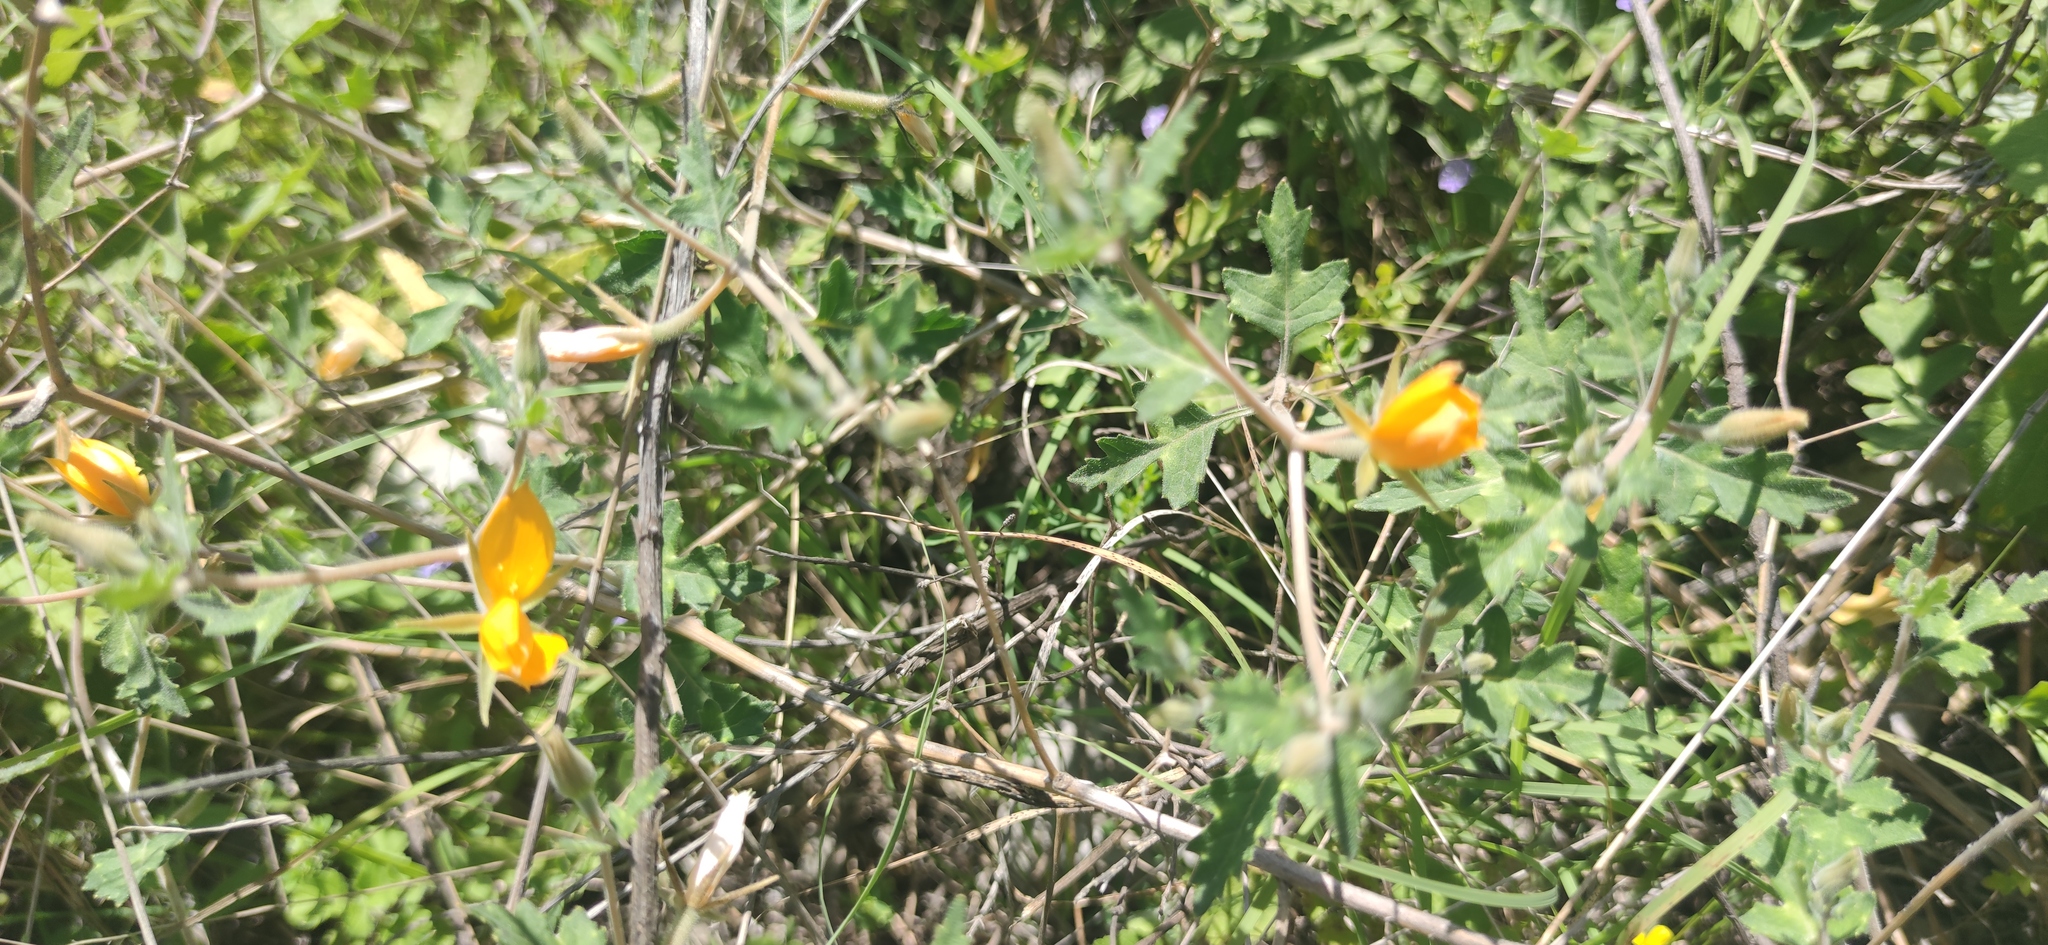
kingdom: Plantae
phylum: Tracheophyta
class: Magnoliopsida
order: Cornales
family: Loasaceae
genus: Mentzelia
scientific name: Mentzelia hispida
